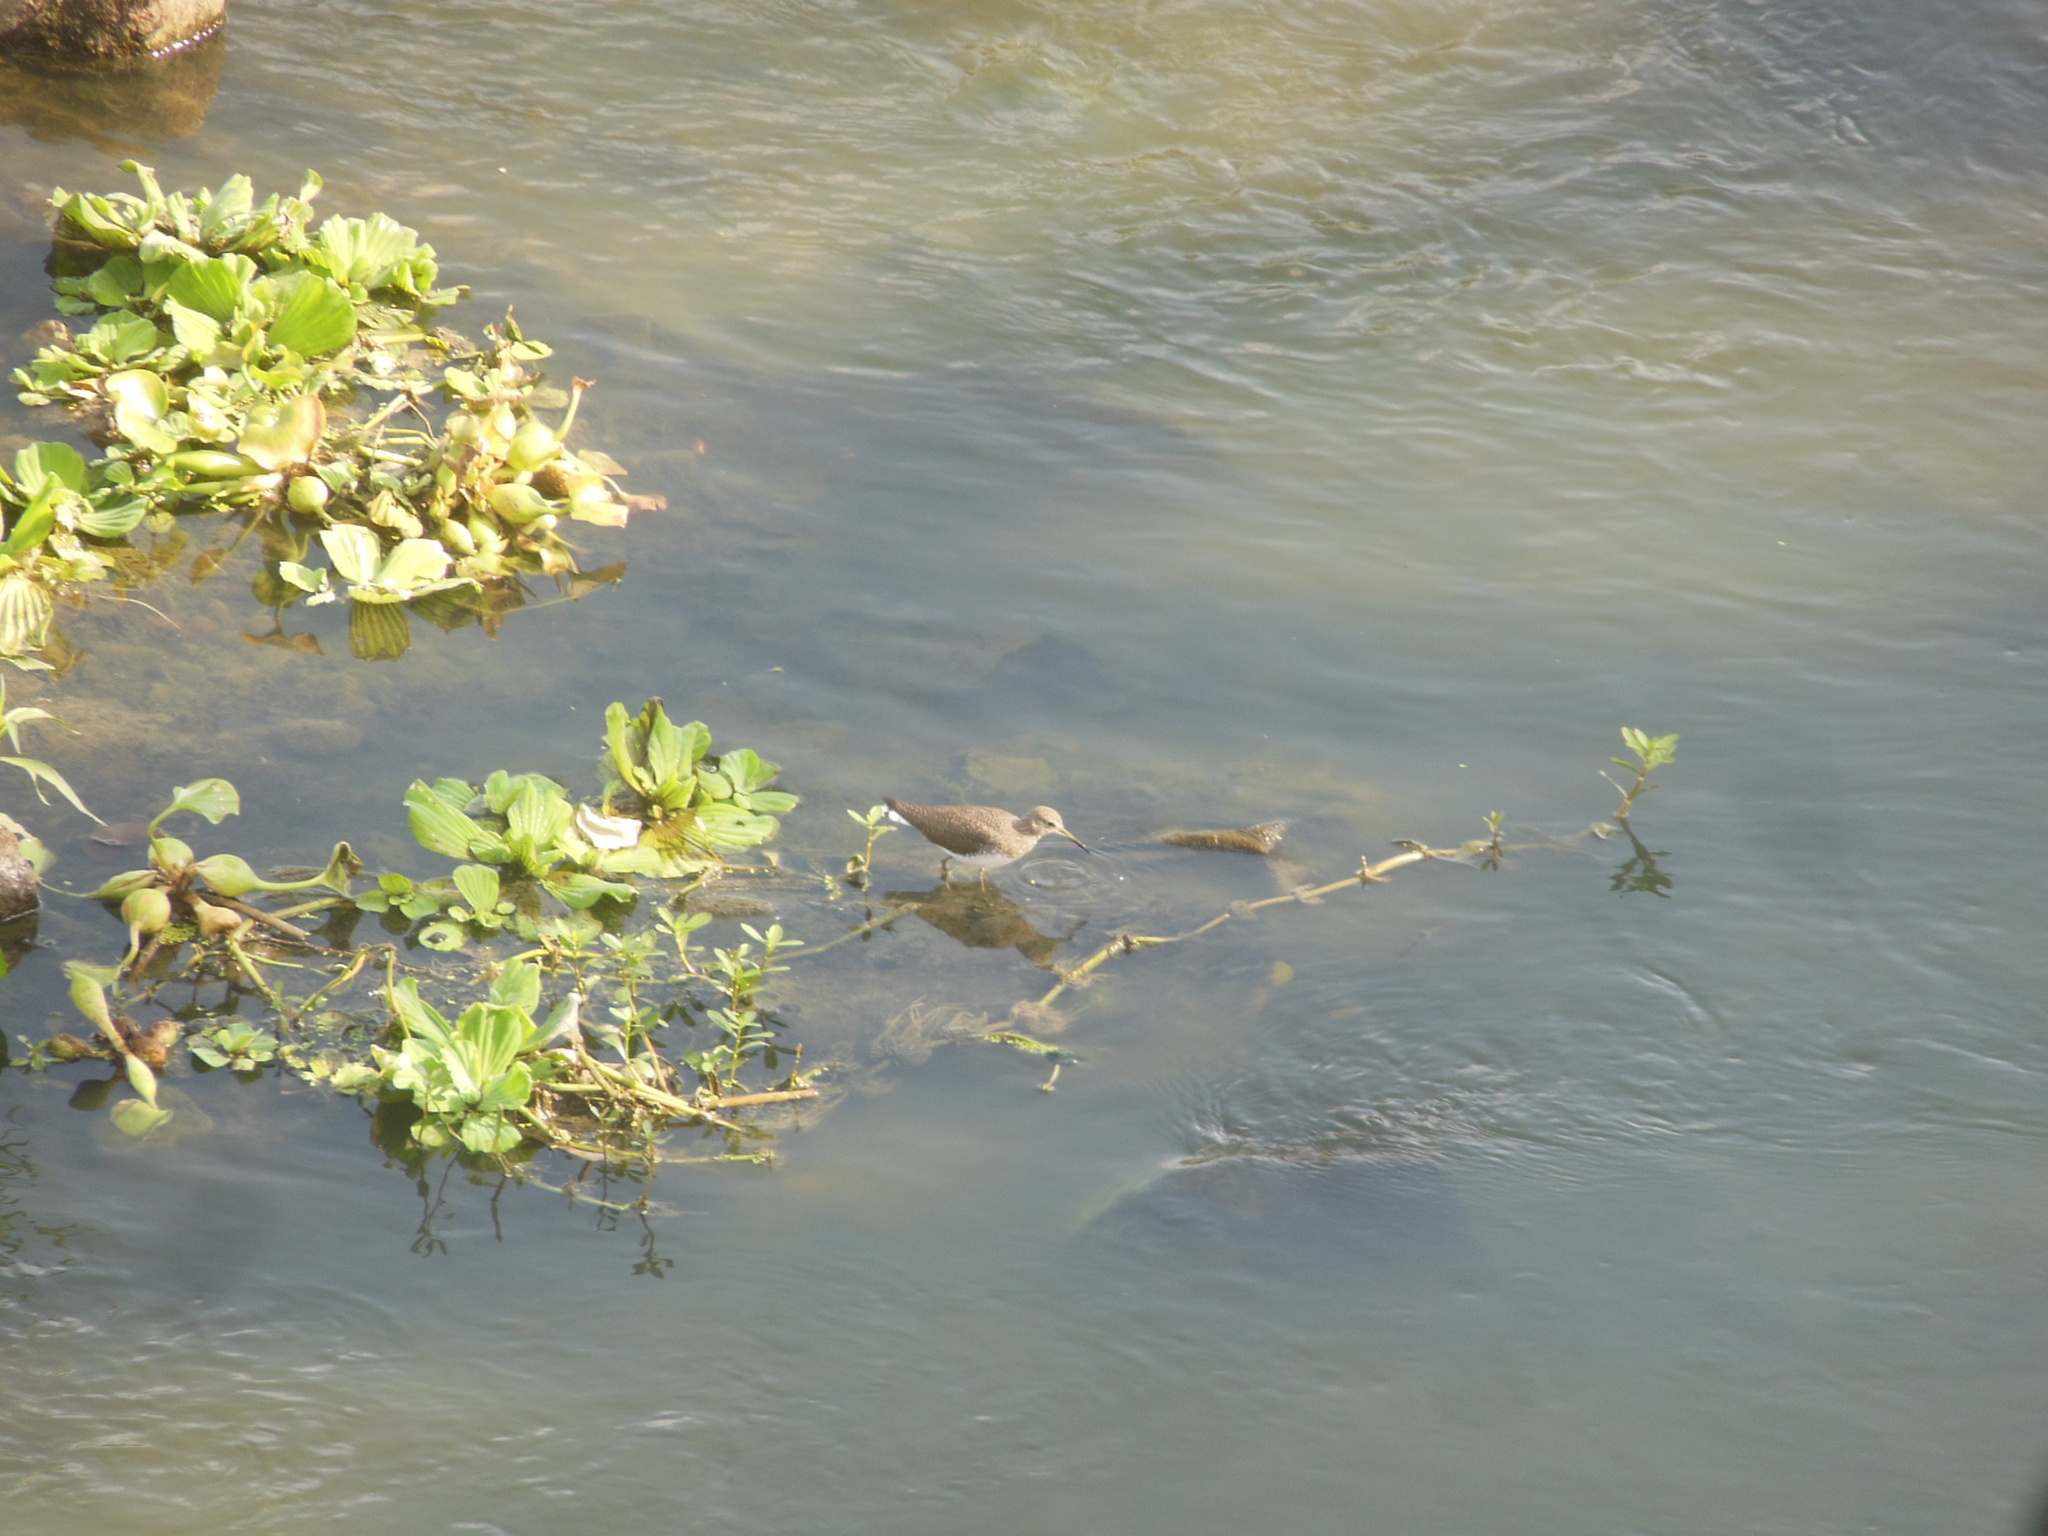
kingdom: Animalia
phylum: Chordata
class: Aves
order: Charadriiformes
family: Scolopacidae
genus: Tringa
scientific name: Tringa ochropus
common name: Green sandpiper
